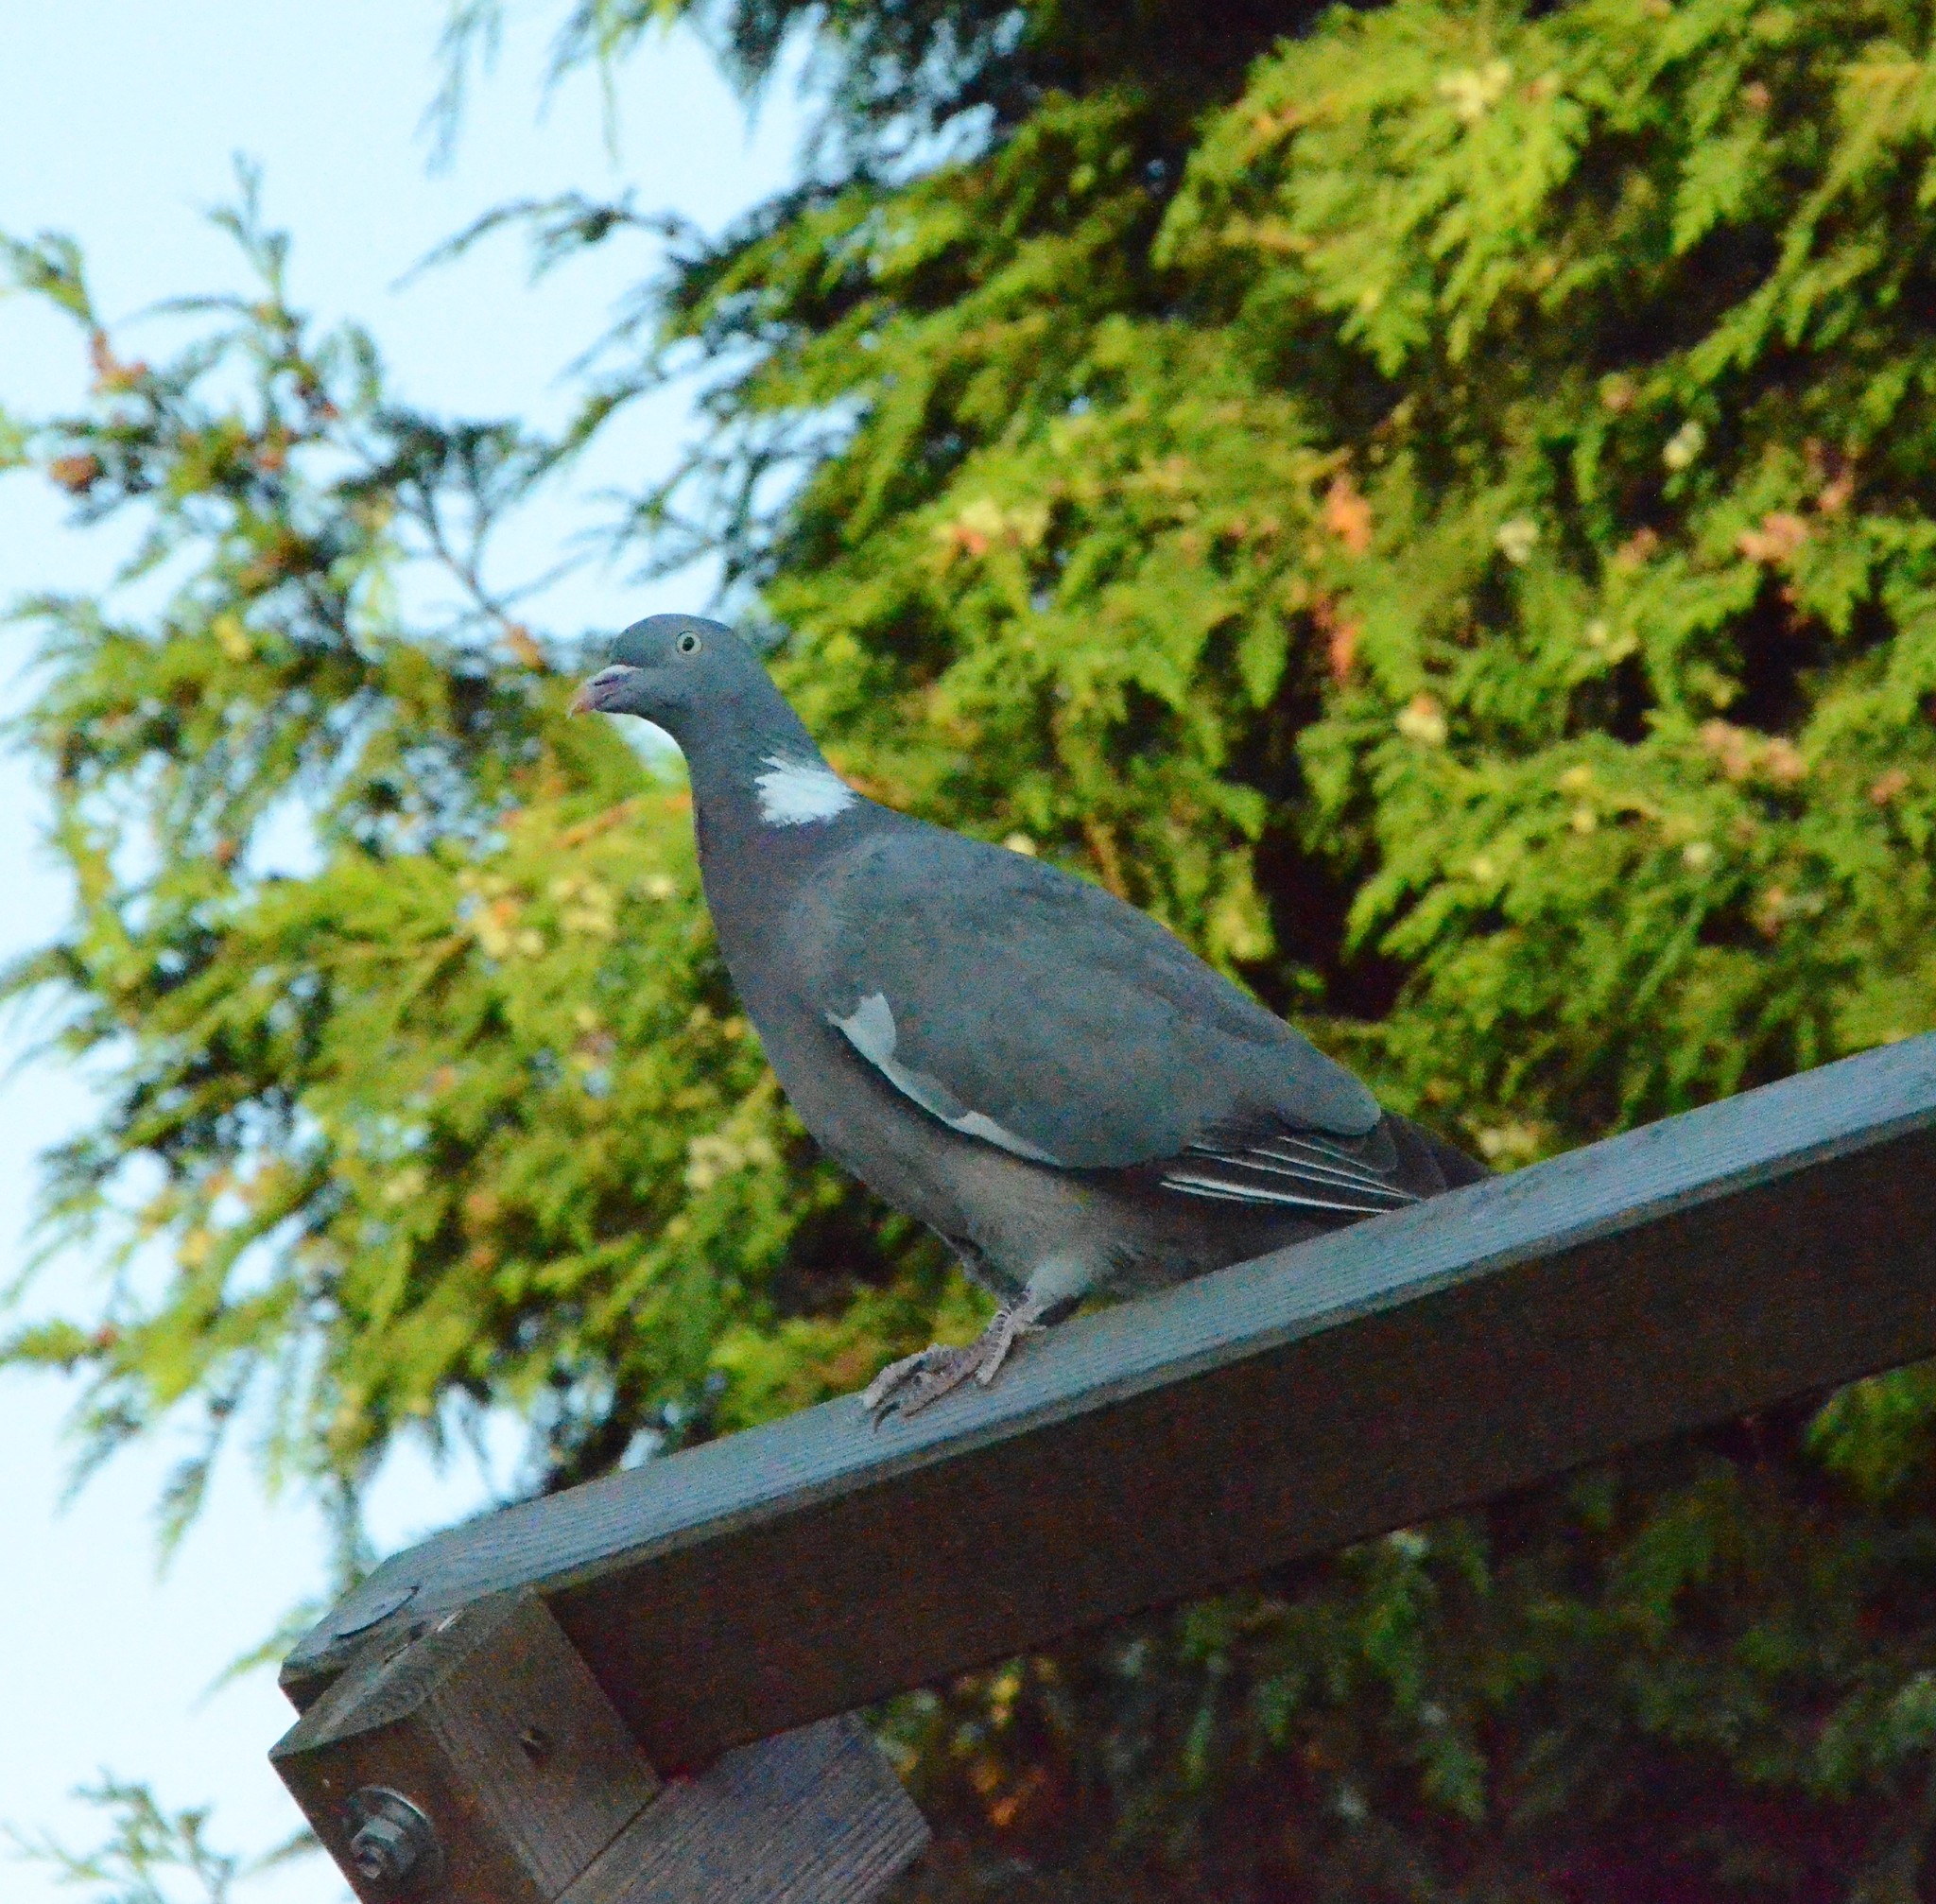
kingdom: Animalia
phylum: Chordata
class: Aves
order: Columbiformes
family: Columbidae
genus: Columba
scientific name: Columba palumbus
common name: Common wood pigeon
